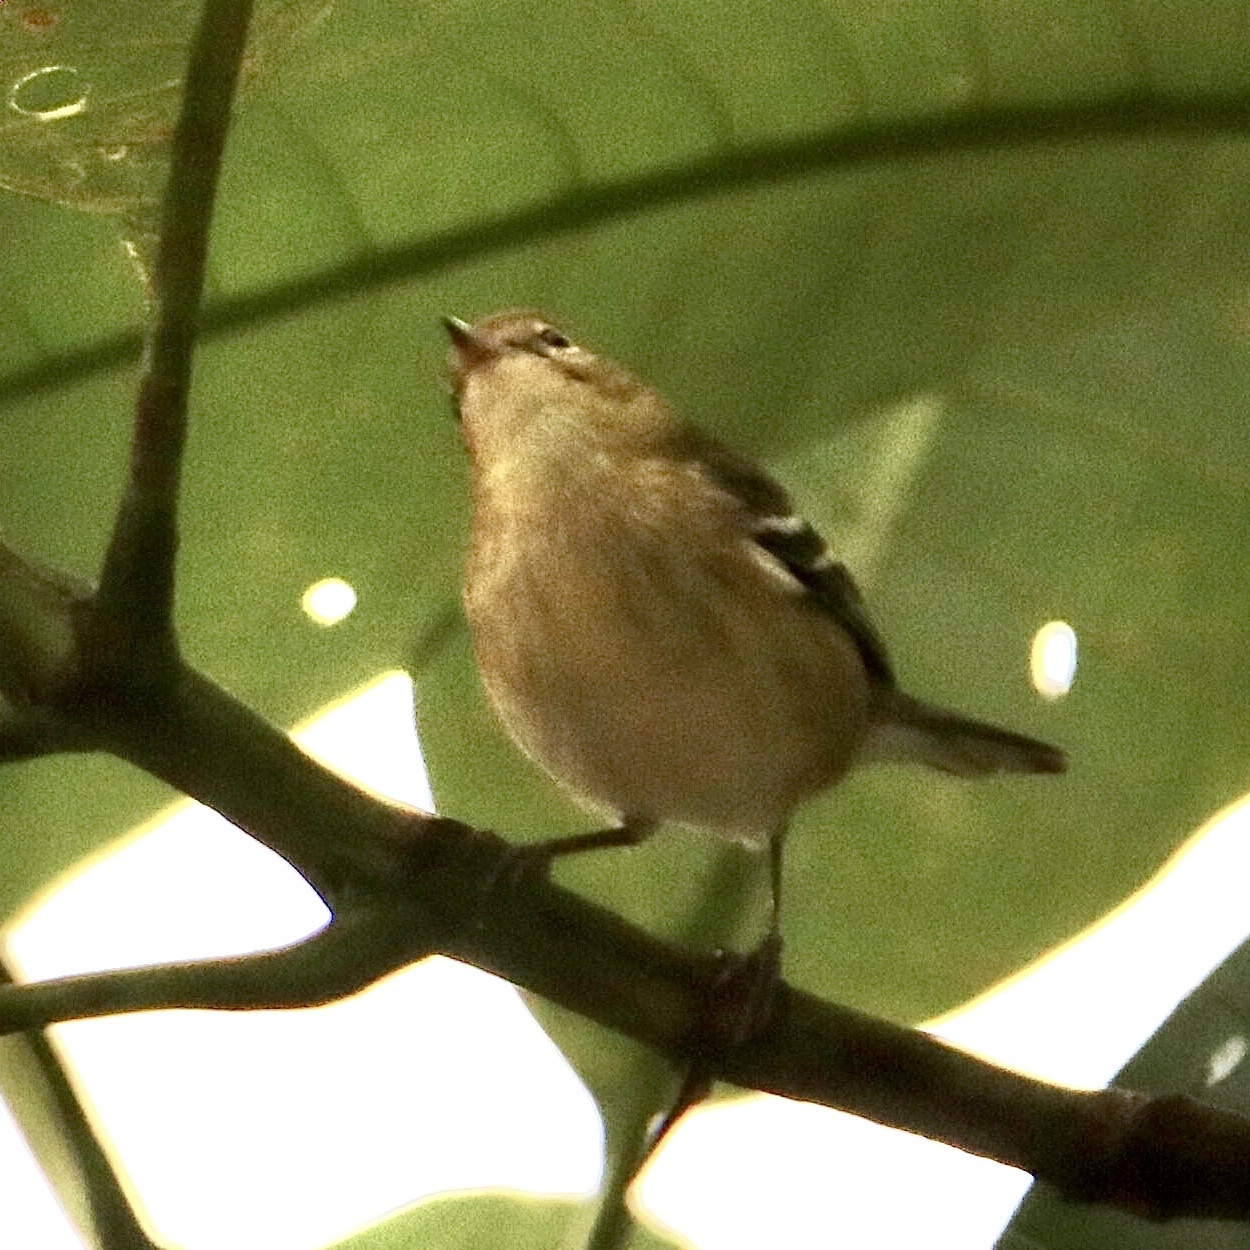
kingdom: Animalia
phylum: Chordata
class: Aves
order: Passeriformes
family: Parulidae
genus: Setophaga
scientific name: Setophaga castanea
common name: Bay-breasted warbler
